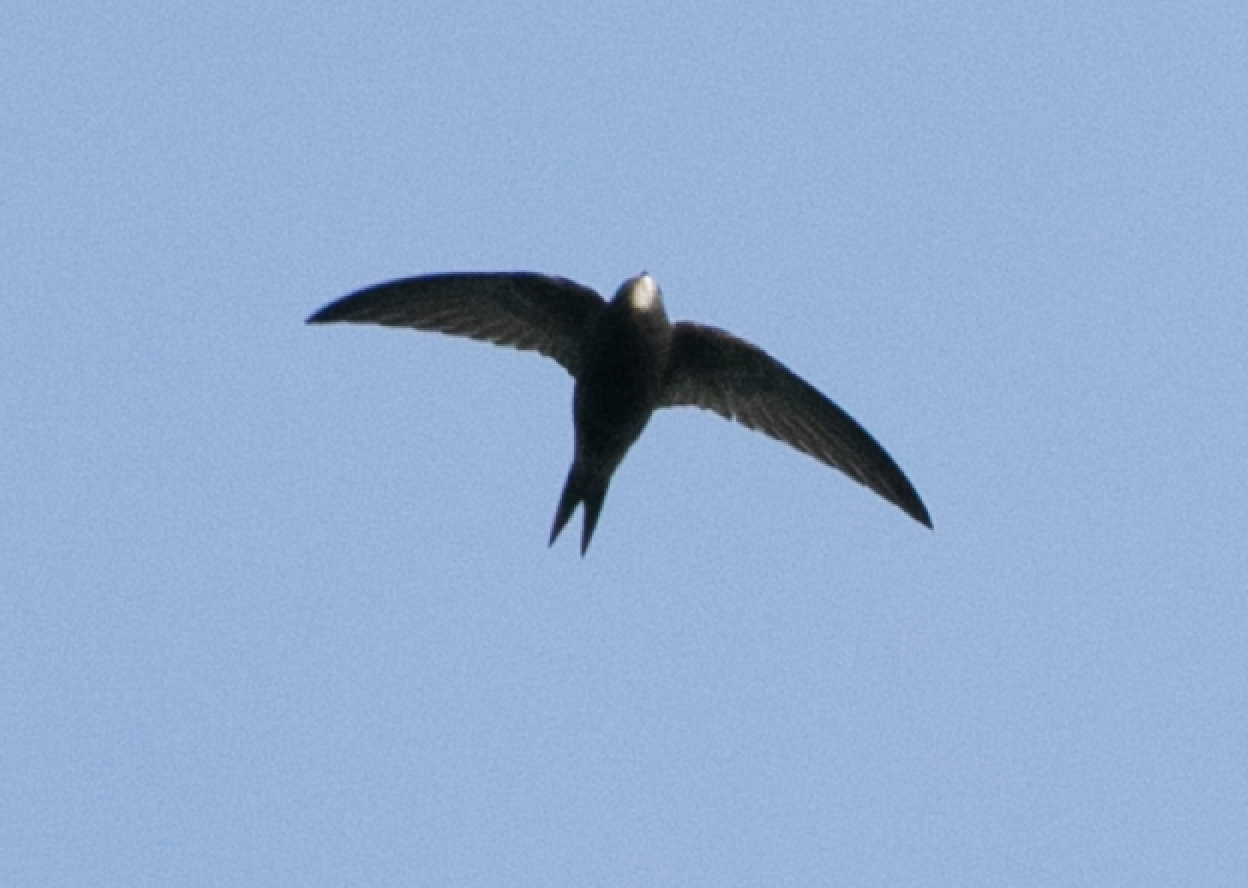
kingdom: Animalia
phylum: Chordata
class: Aves
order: Apodiformes
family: Apodidae
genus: Apus
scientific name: Apus apus
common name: Common swift
